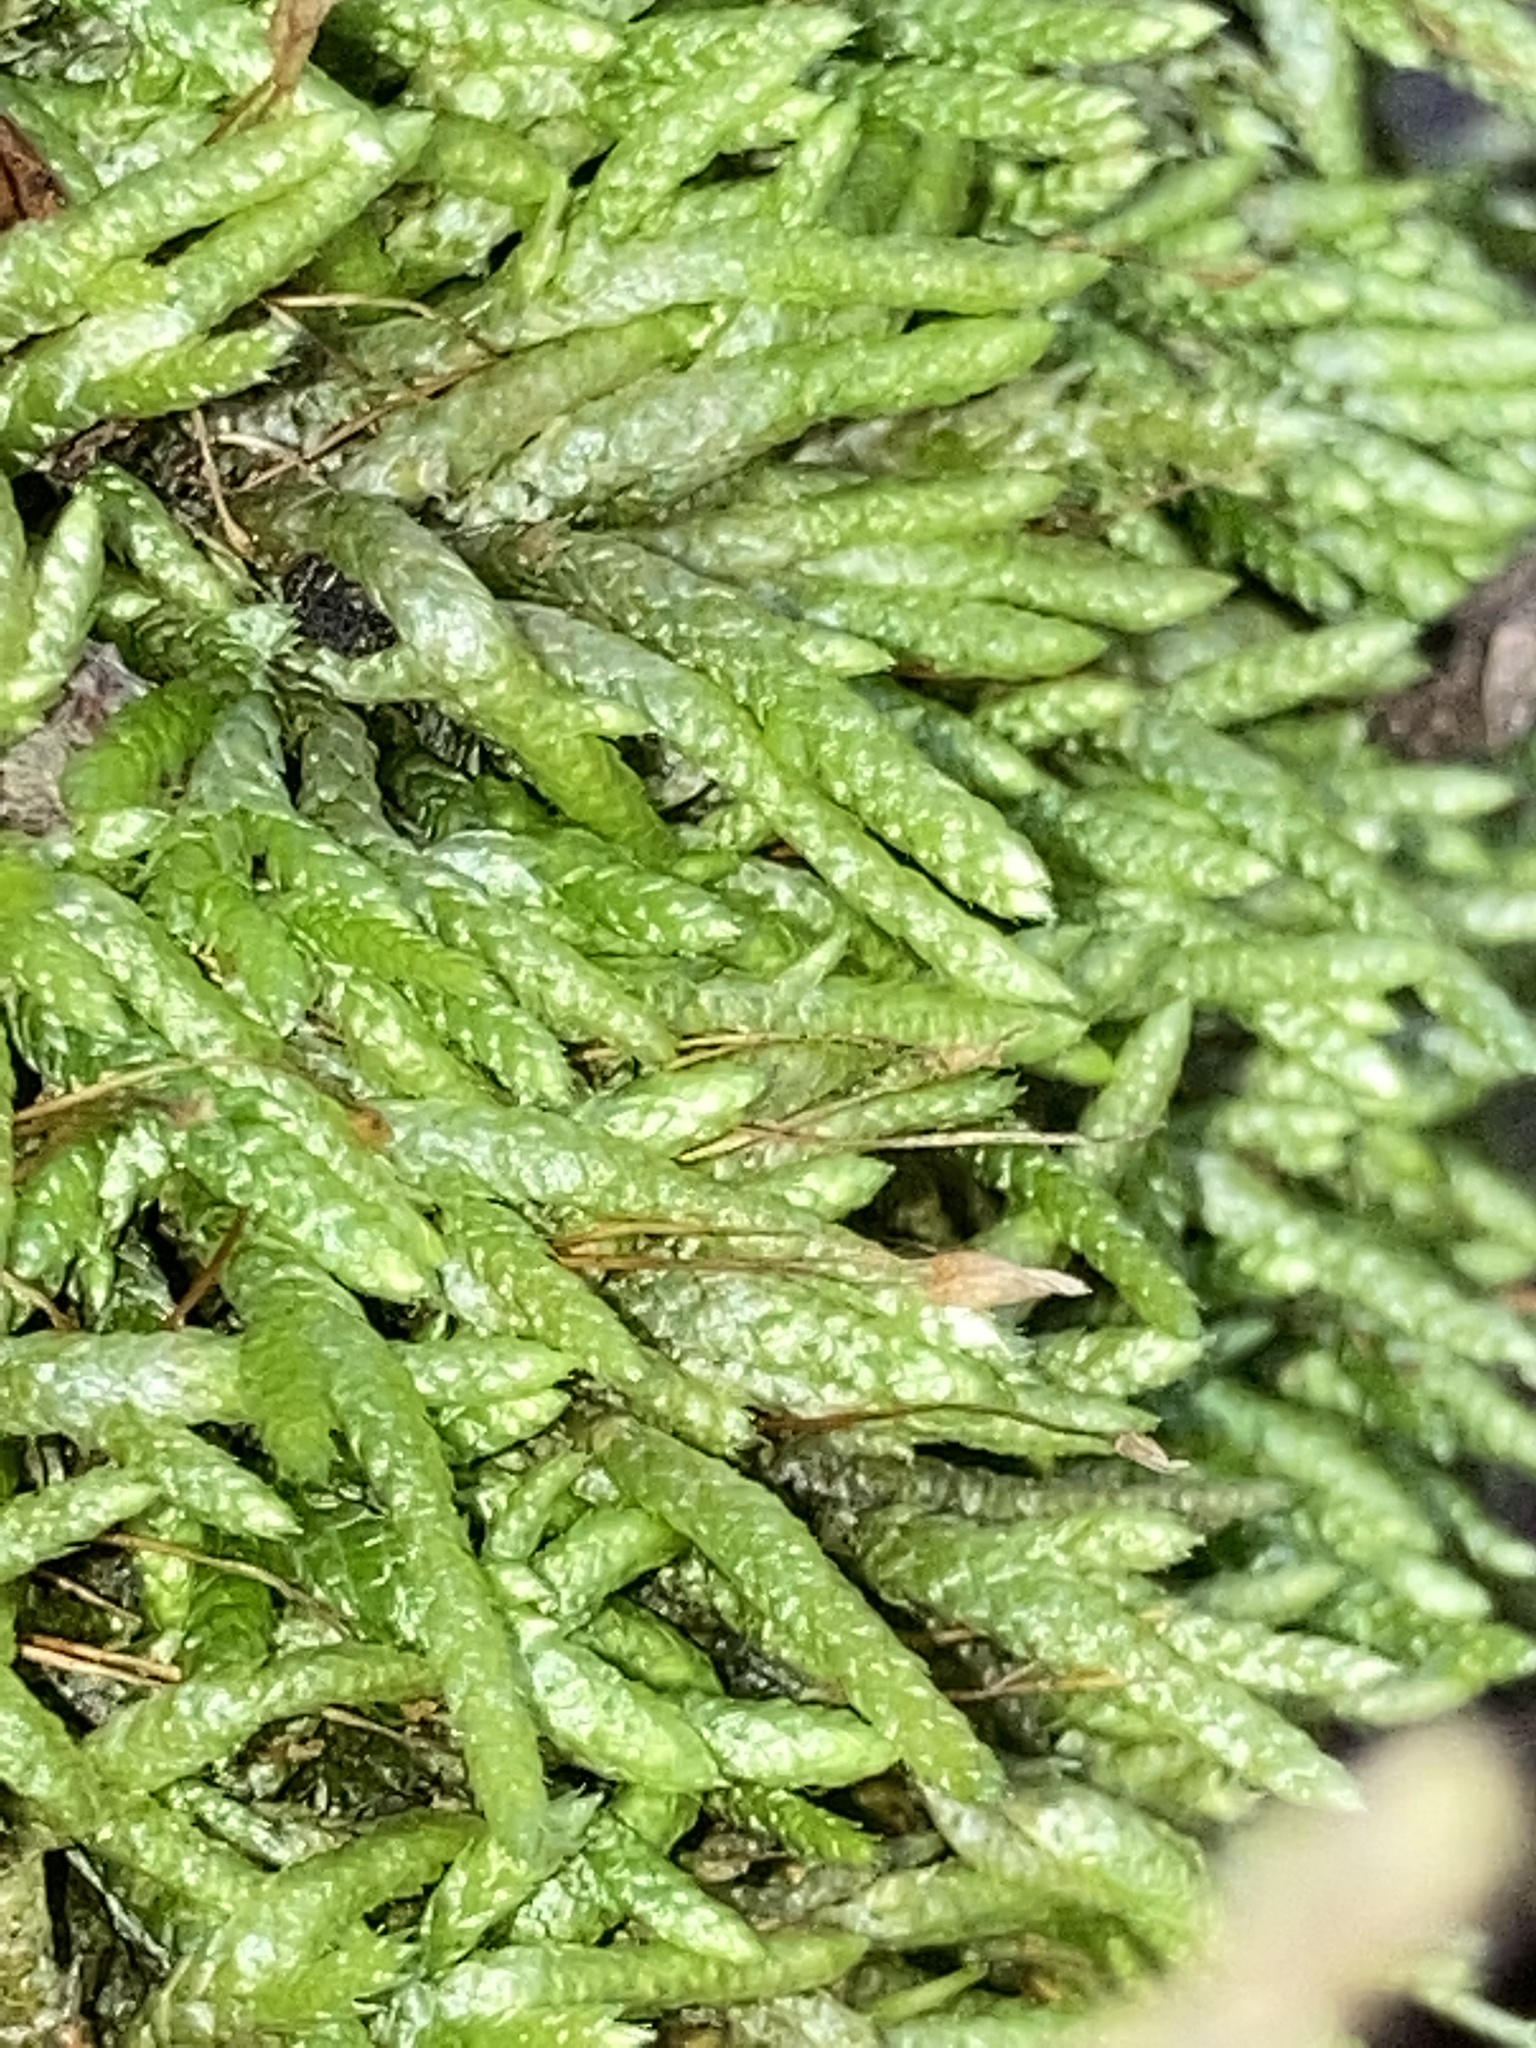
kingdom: Plantae
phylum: Bryophyta
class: Bryopsida
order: Hypnales
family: Brachytheciaceae
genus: Bryoandersonia
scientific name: Bryoandersonia illecebra
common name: Spoon-leaved moss
